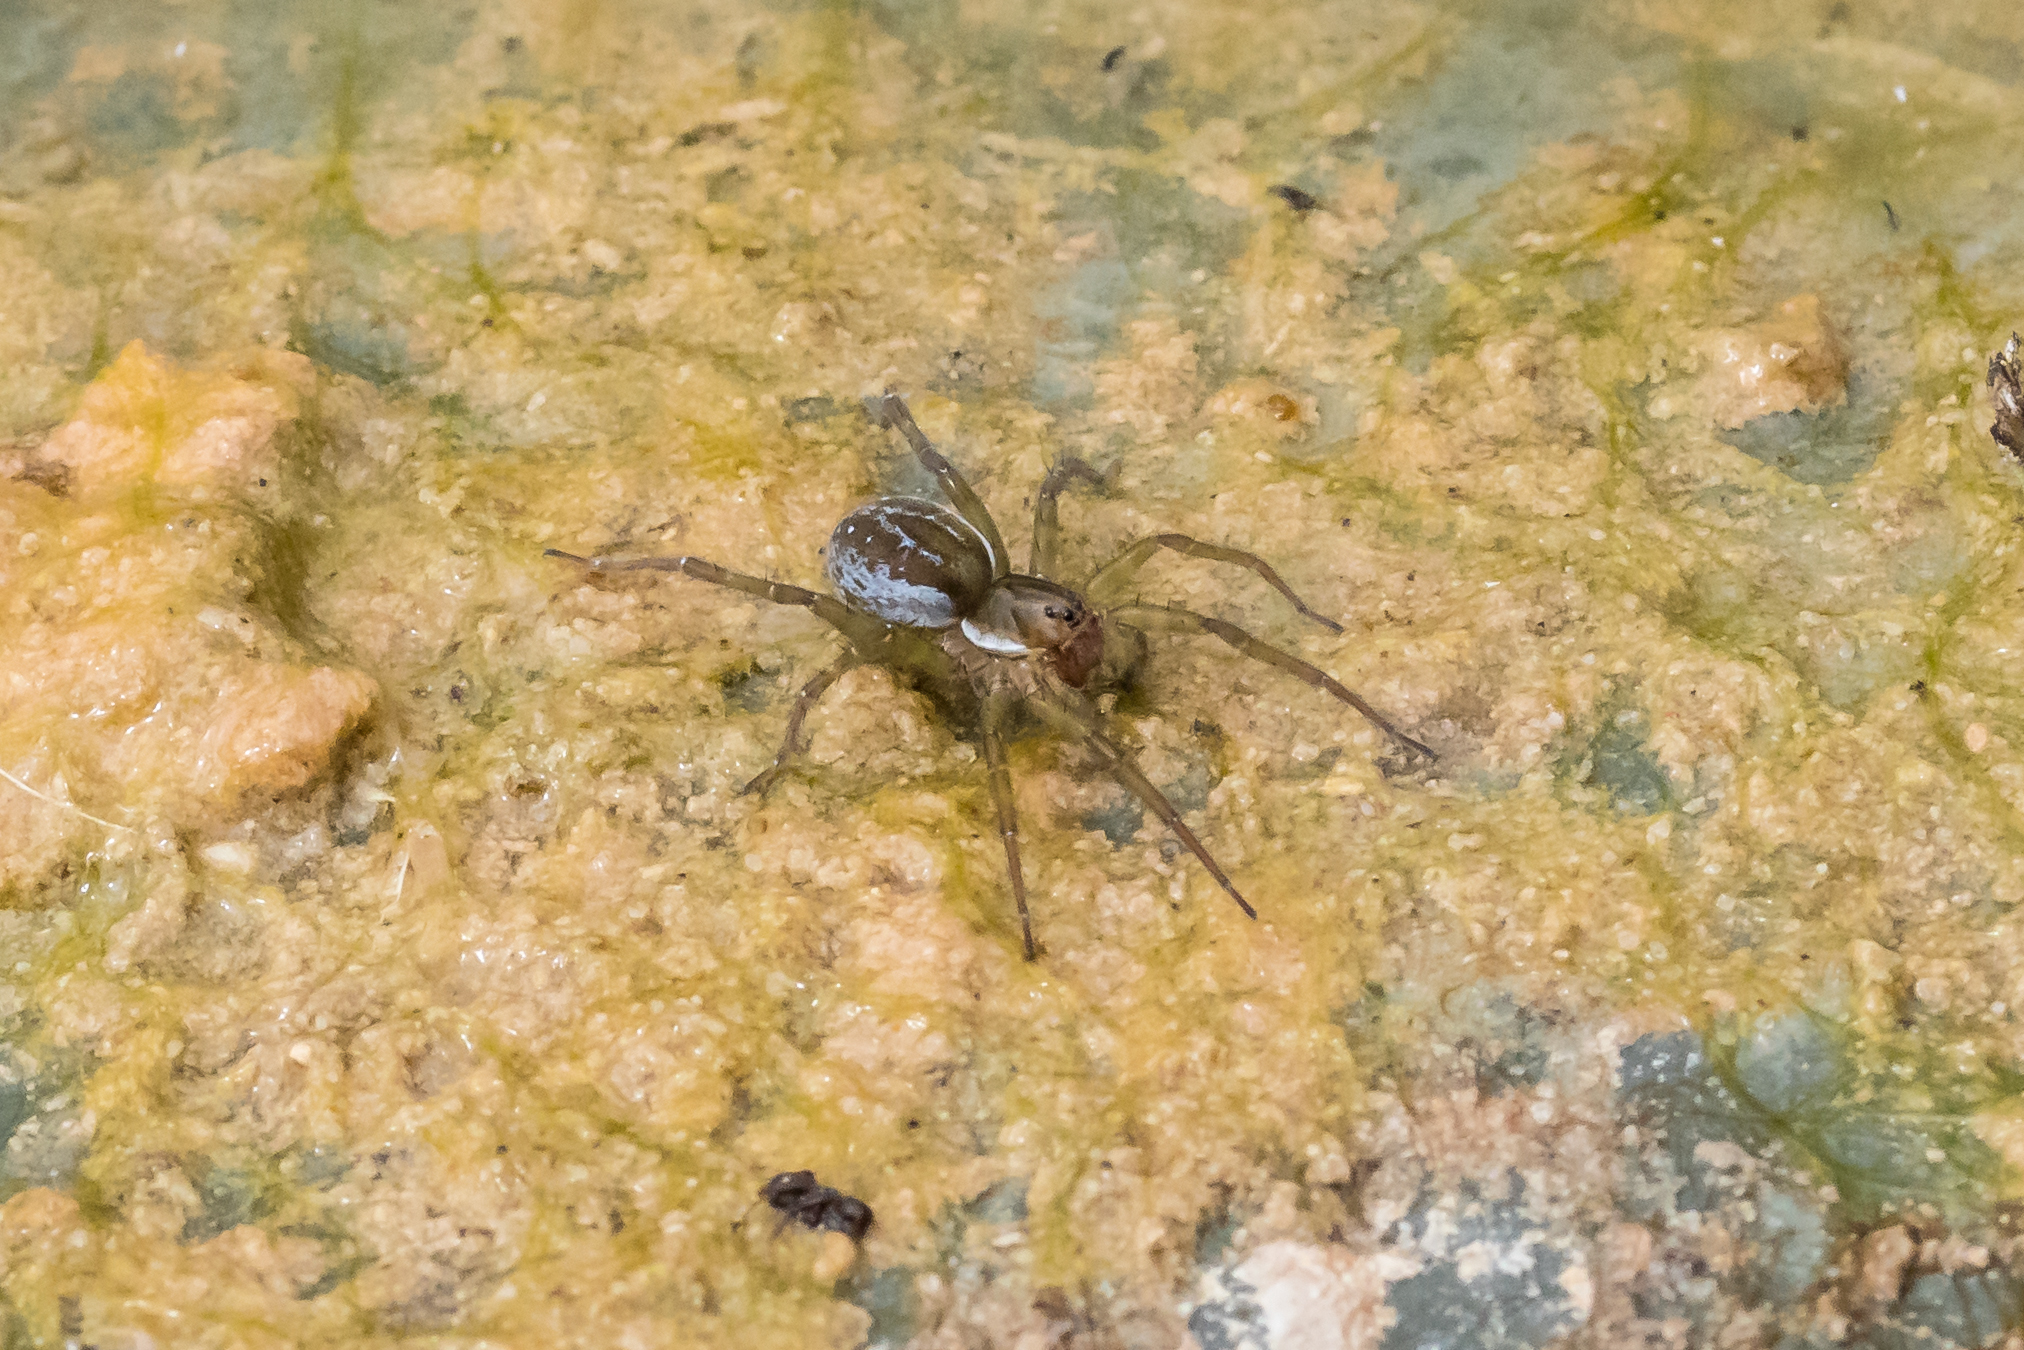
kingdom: Animalia
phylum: Arthropoda
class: Arachnida
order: Araneae
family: Lycosidae
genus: Pirata
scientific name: Pirata piraticus
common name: Pirate otter spider
